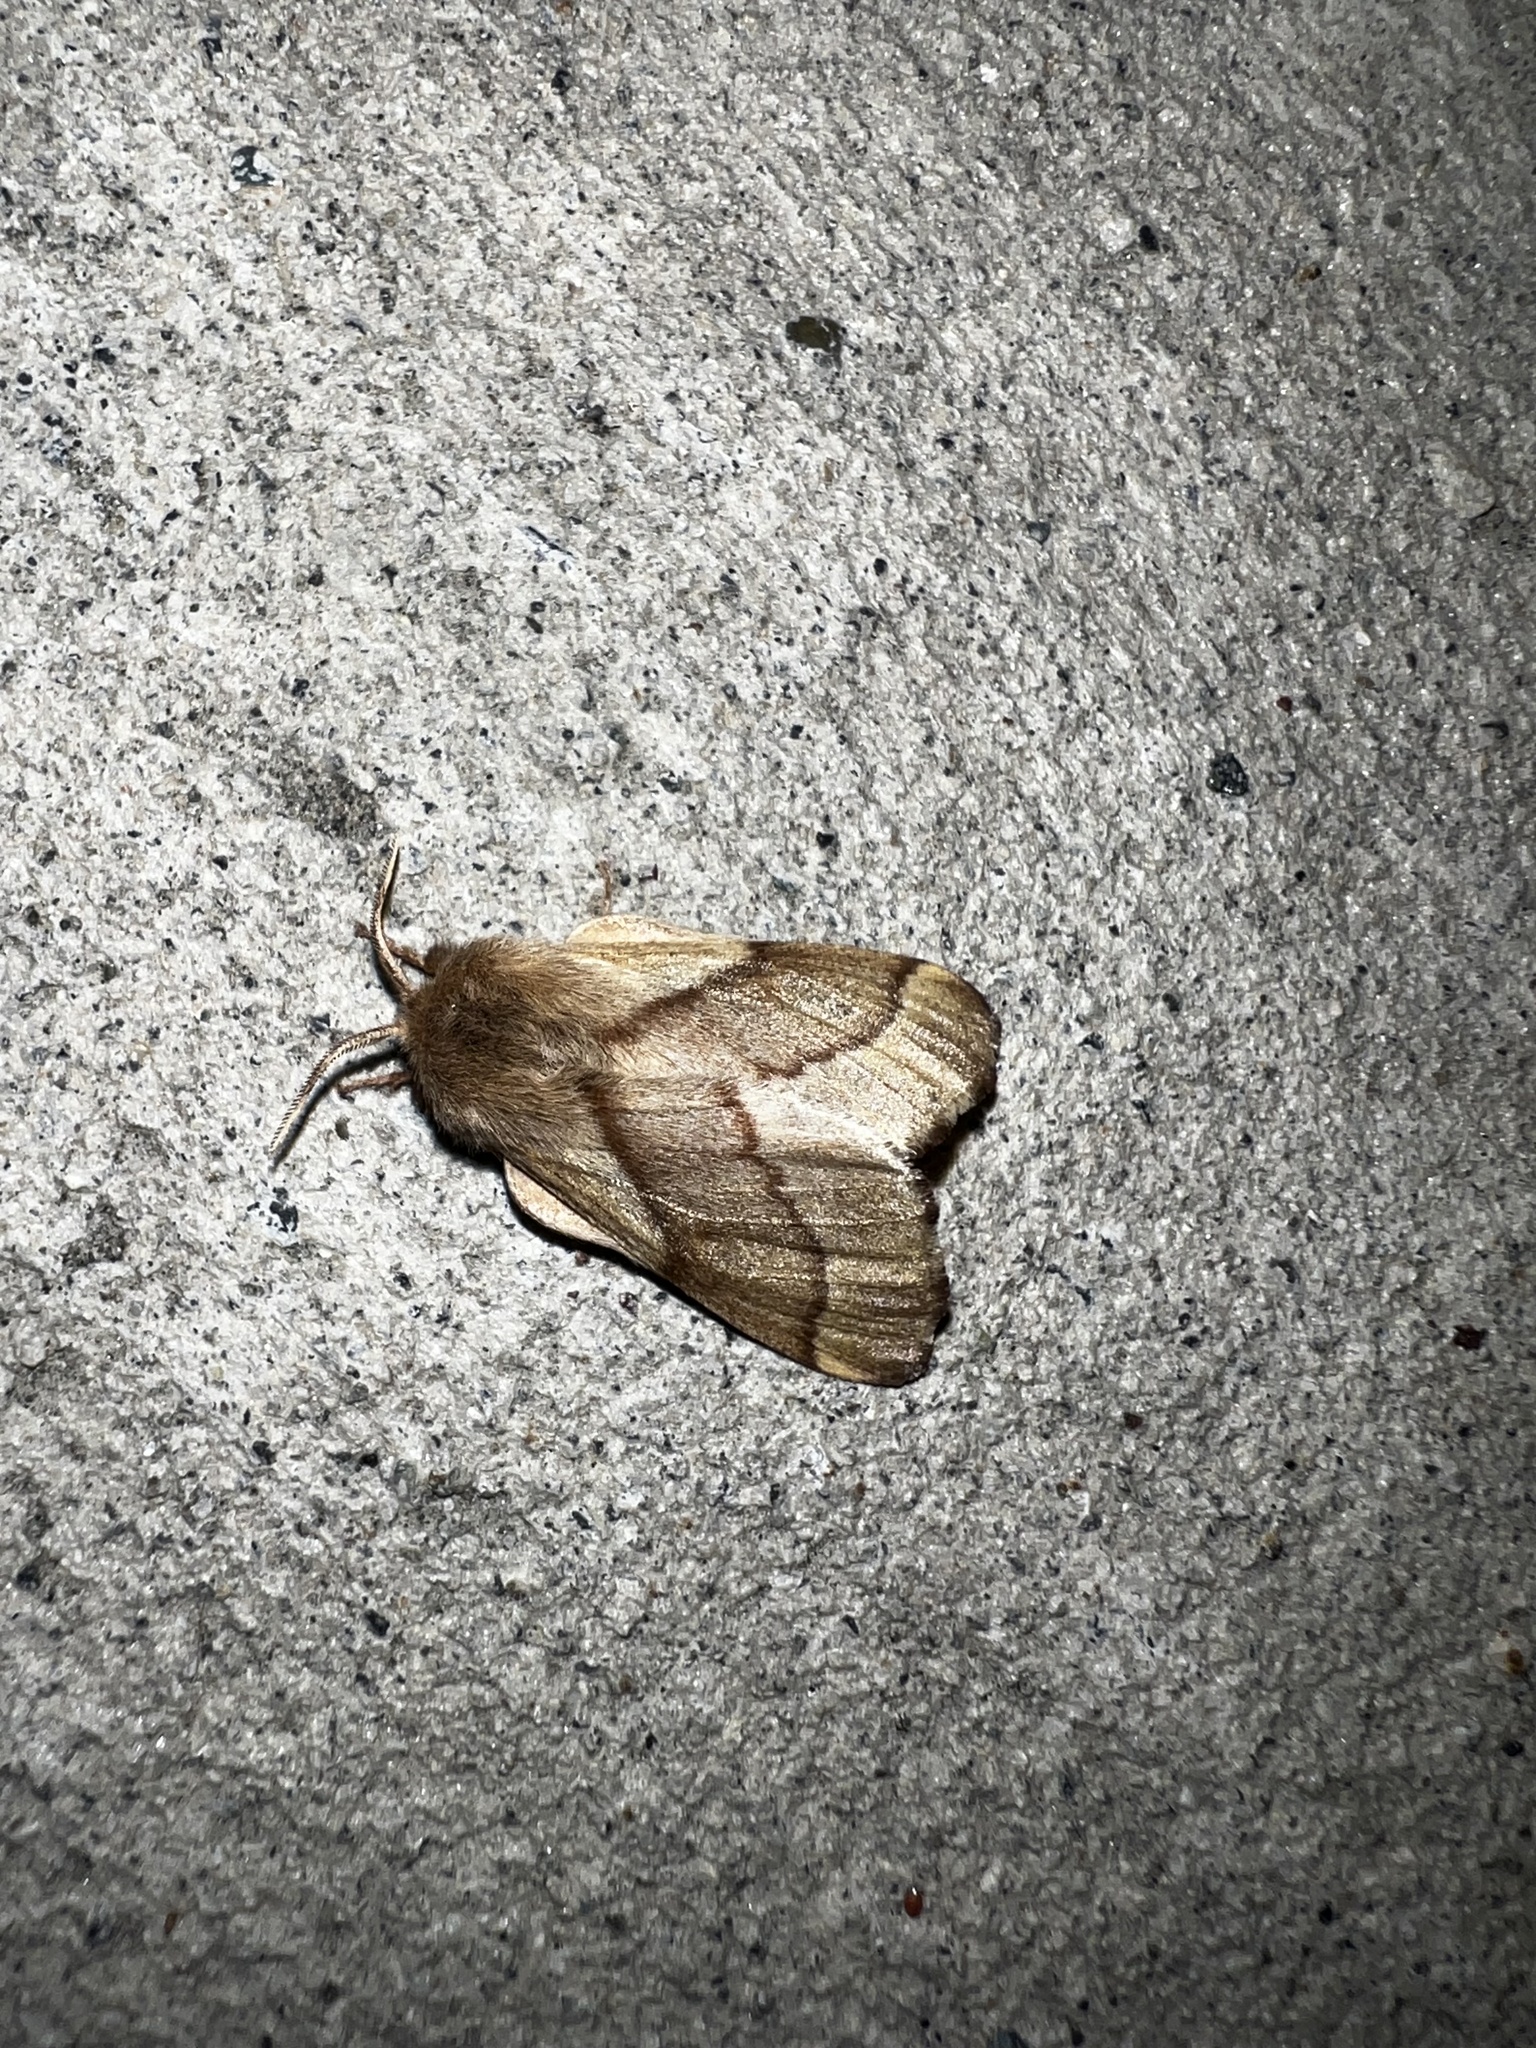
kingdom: Animalia
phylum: Arthropoda
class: Insecta
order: Lepidoptera
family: Lasiocampidae
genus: Malacosoma
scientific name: Malacosoma californica
